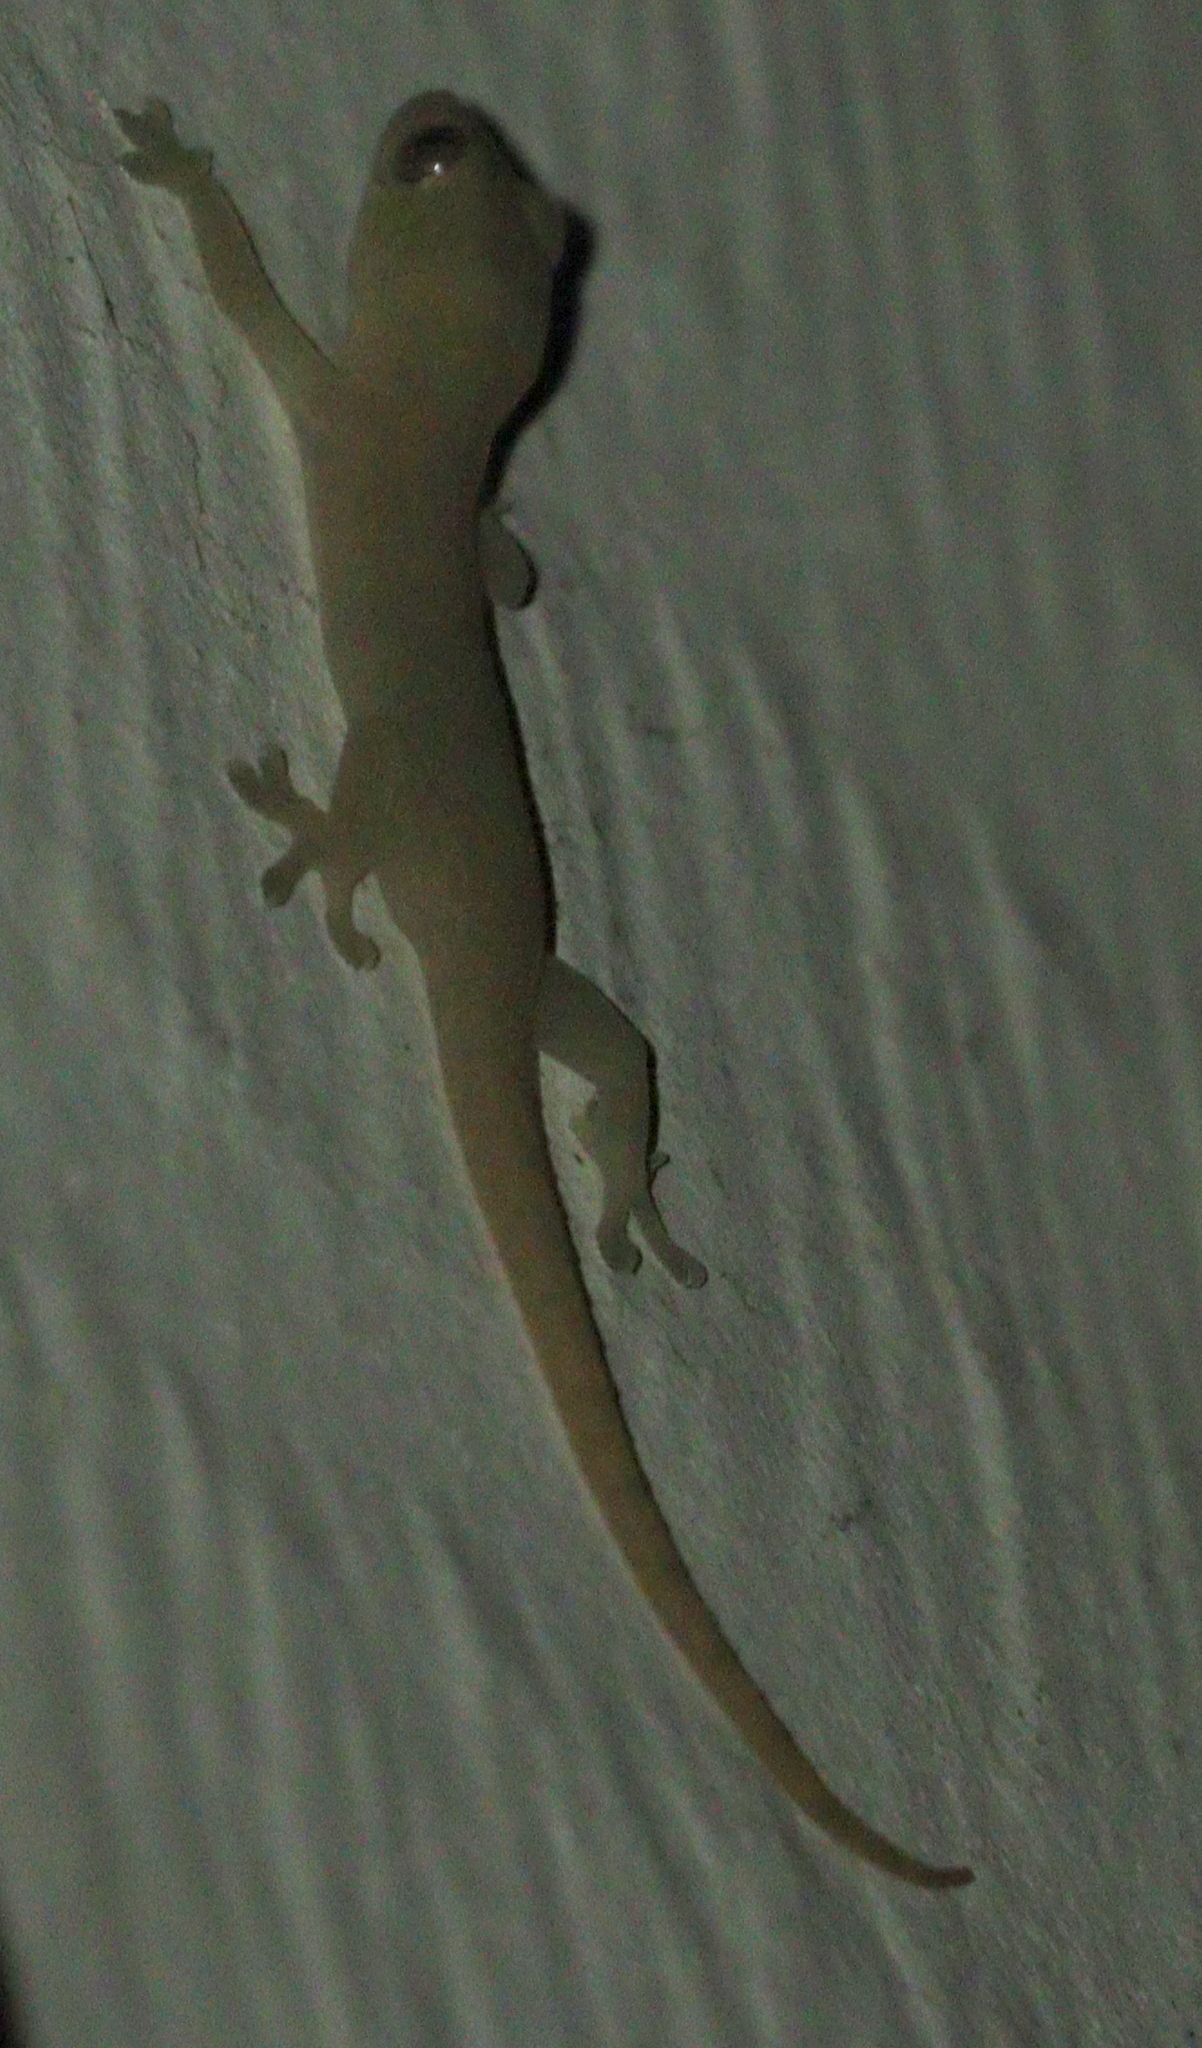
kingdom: Animalia
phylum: Chordata
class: Squamata
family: Gekkonidae
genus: Hemidactylus
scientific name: Hemidactylus frenatus
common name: Common house gecko
